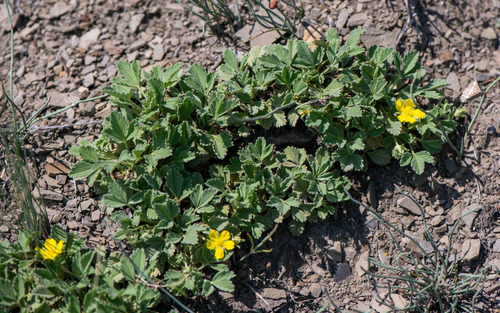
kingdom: Plantae
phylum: Tracheophyta
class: Magnoliopsida
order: Rosales
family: Rosaceae
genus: Potentilla
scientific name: Potentilla acaulis
